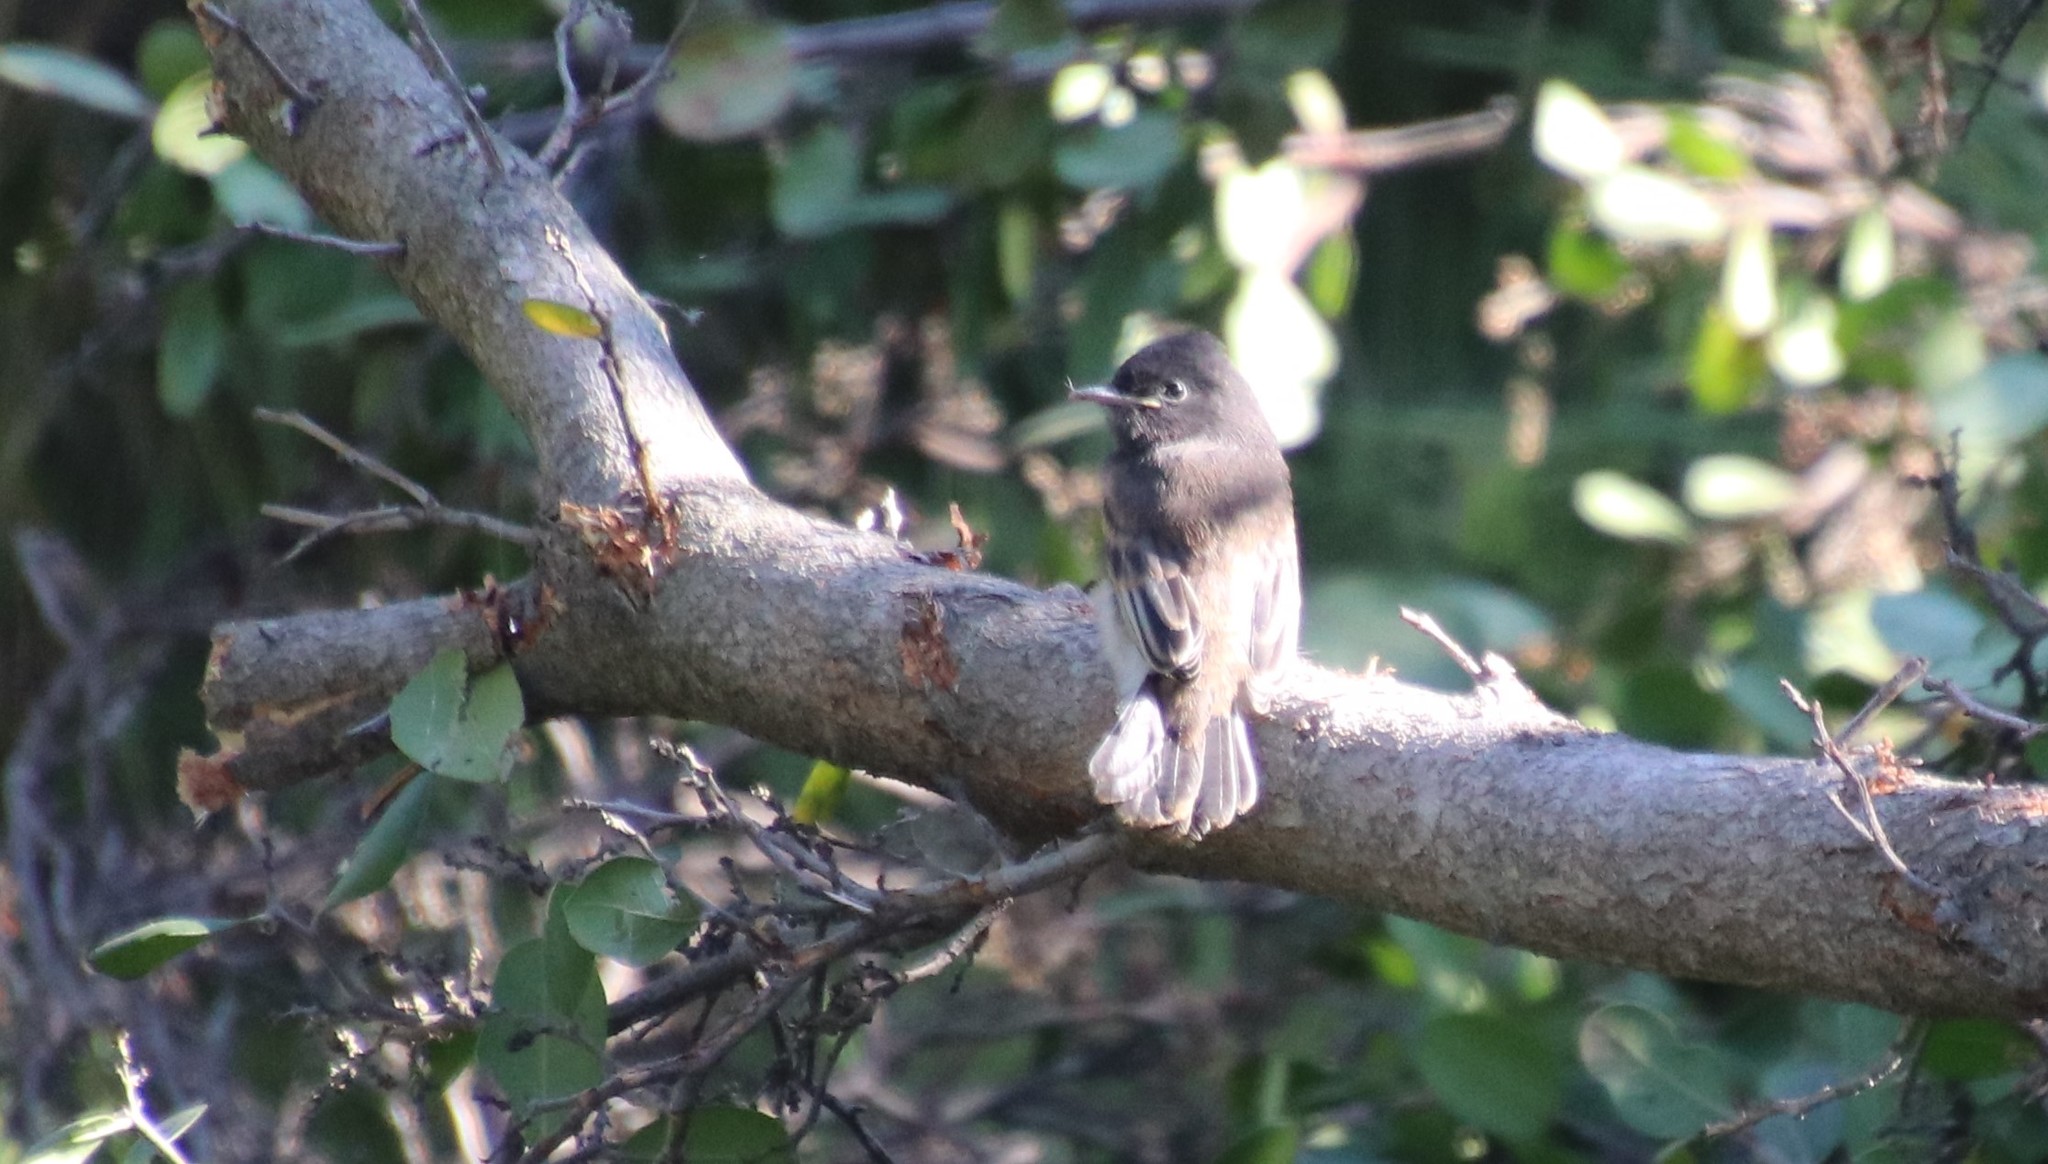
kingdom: Animalia
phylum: Chordata
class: Aves
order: Passeriformes
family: Tyrannidae
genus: Sayornis
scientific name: Sayornis nigricans
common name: Black phoebe
